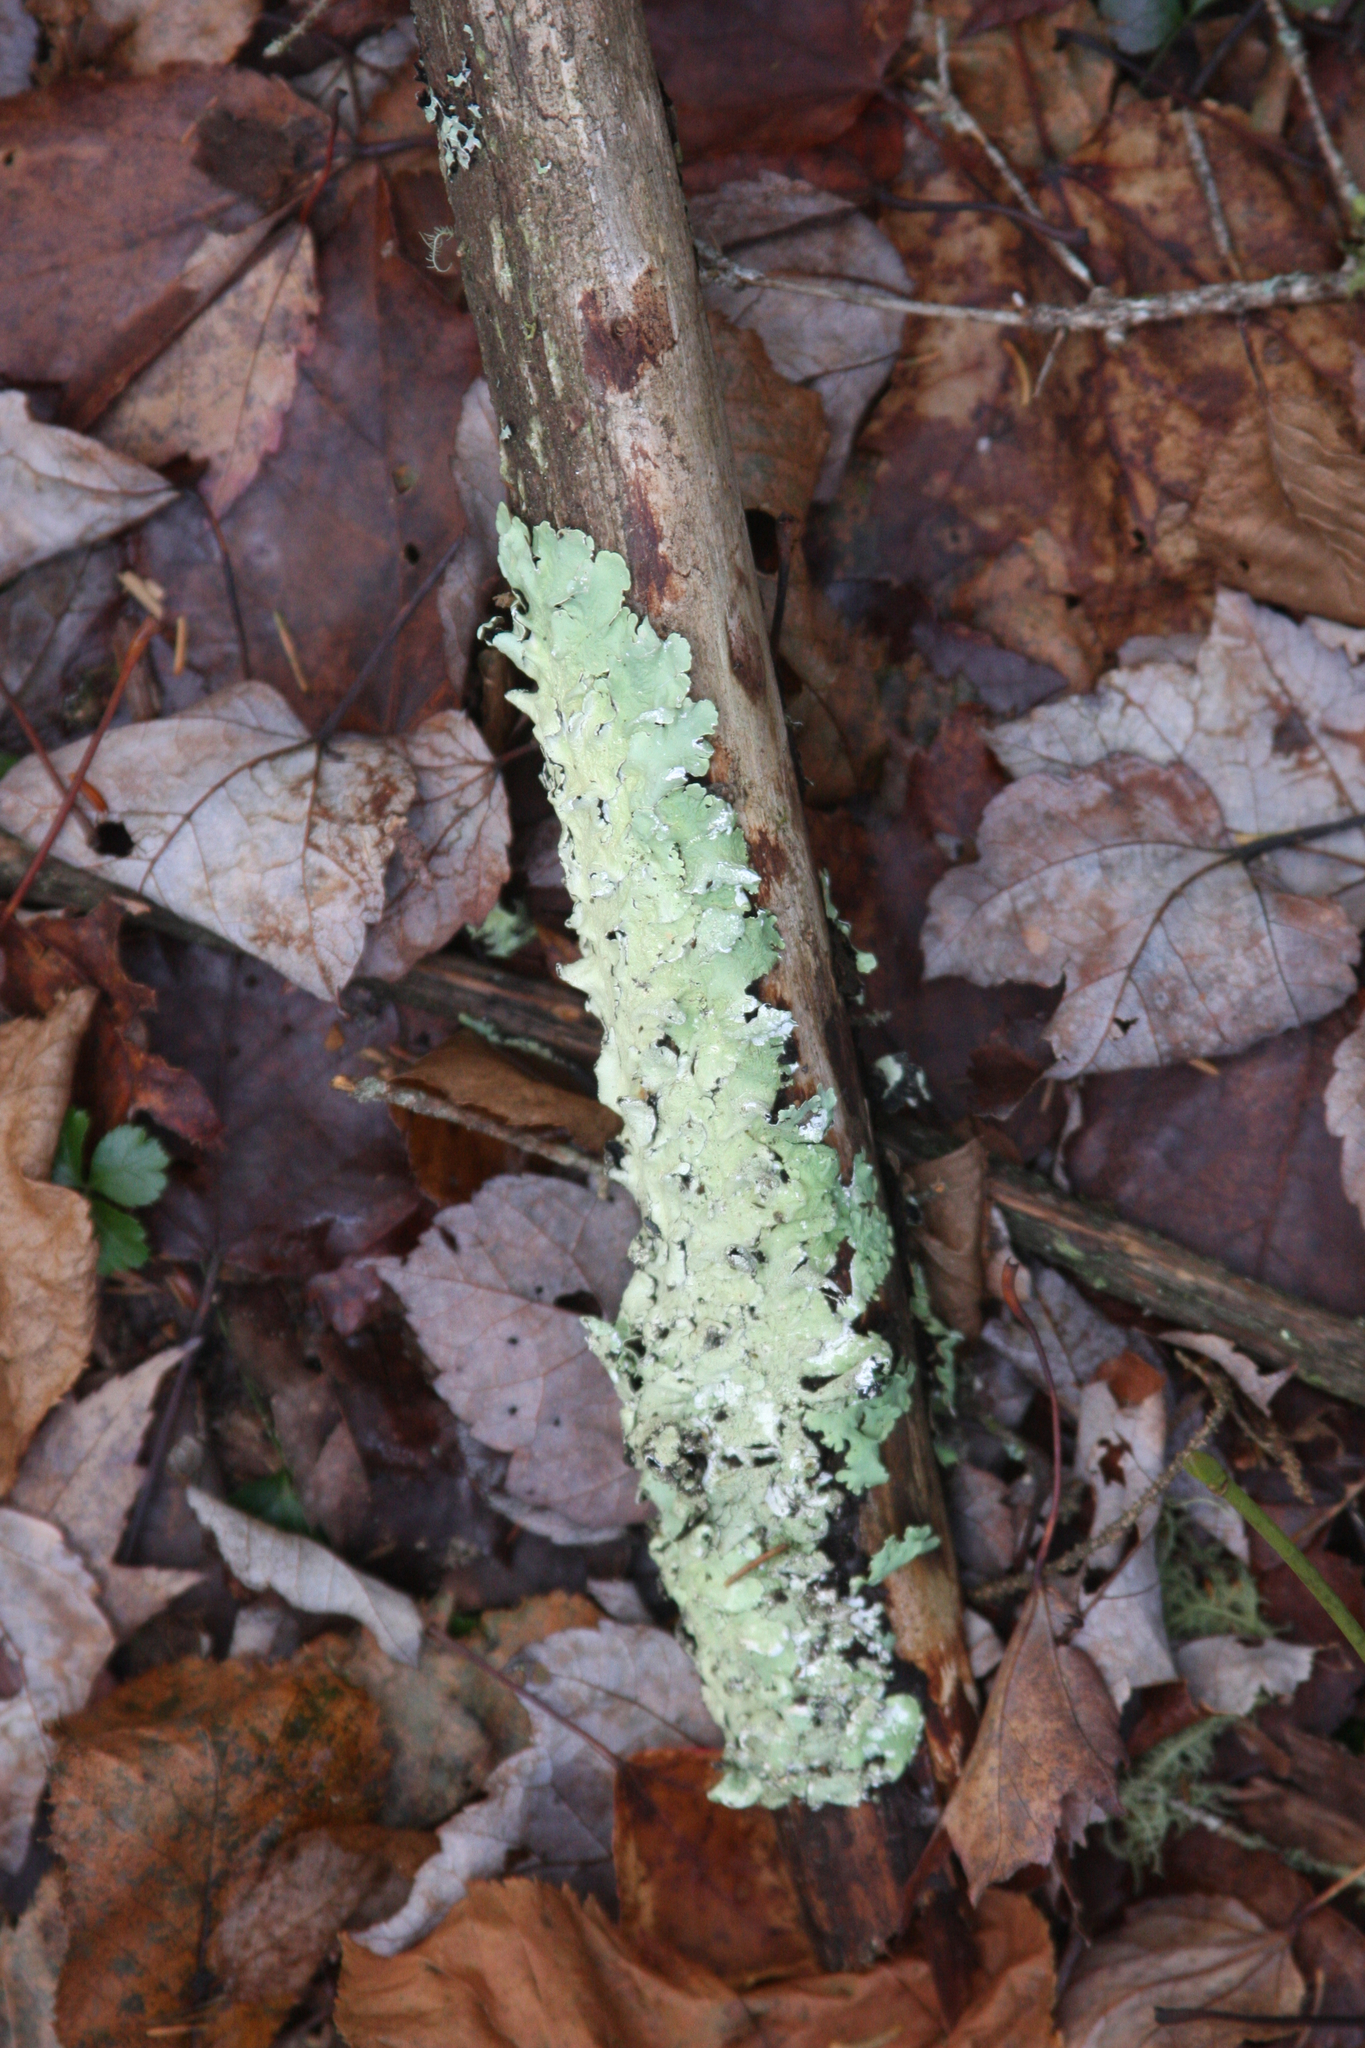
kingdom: Fungi
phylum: Ascomycota
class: Lecanoromycetes
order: Lecanorales
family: Parmeliaceae
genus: Flavoparmelia
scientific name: Flavoparmelia caperata
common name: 40-mile per hour lichen
